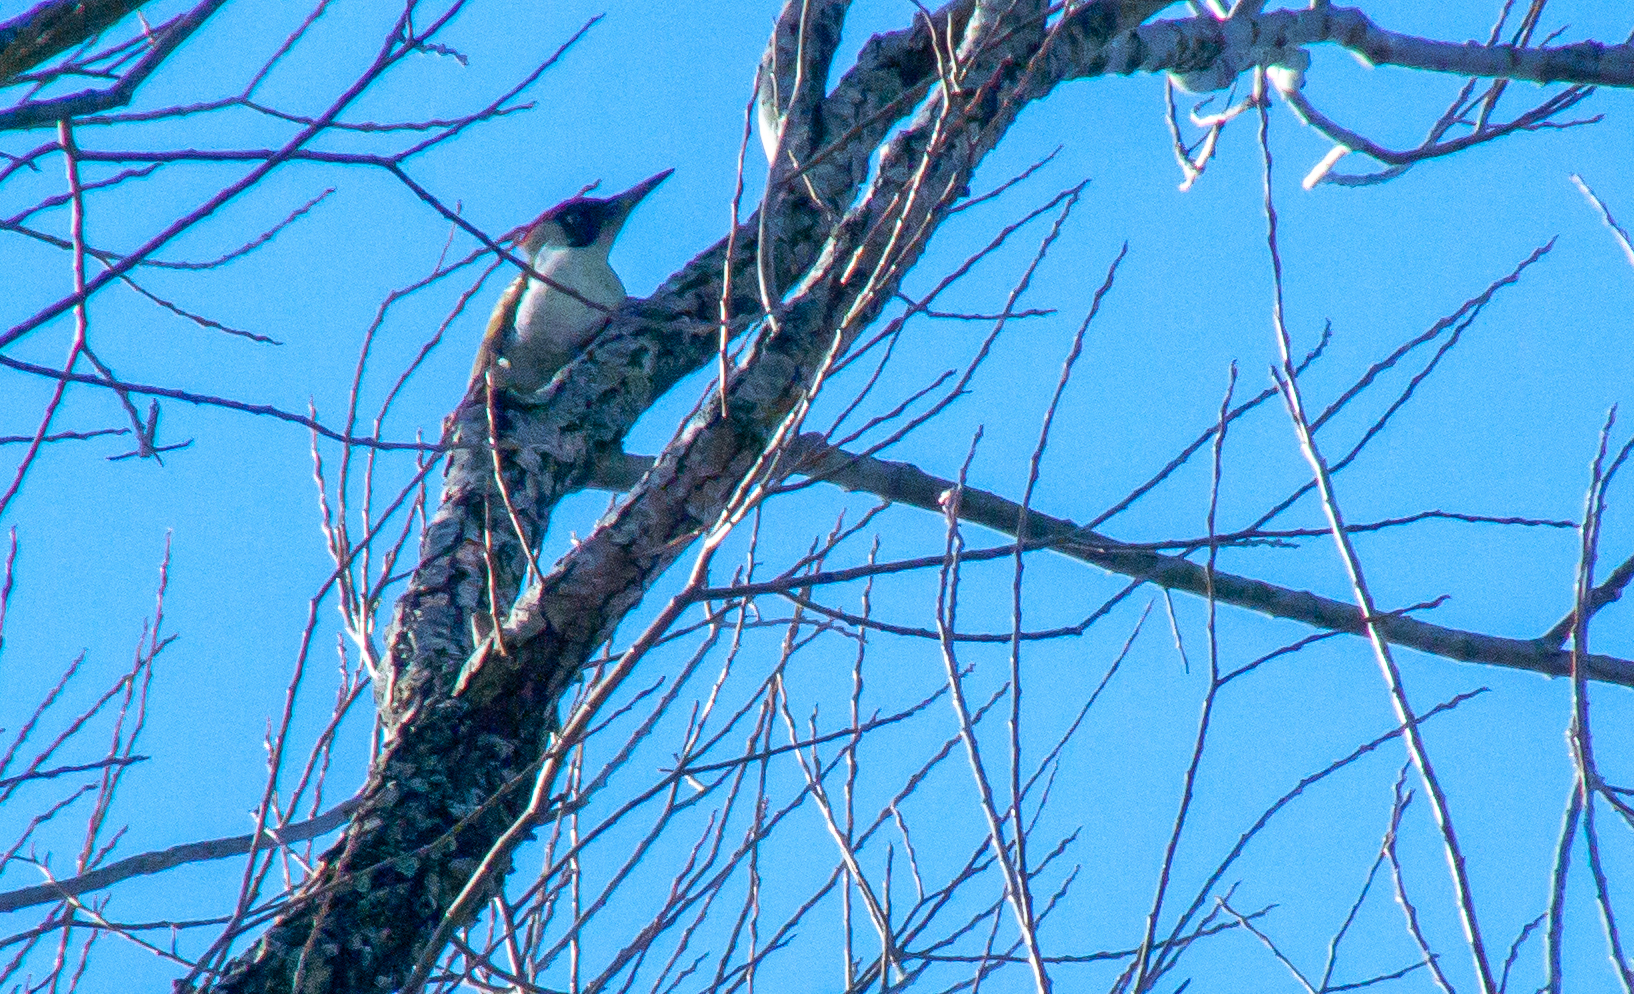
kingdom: Animalia
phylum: Chordata
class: Aves
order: Piciformes
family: Picidae
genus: Picus
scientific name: Picus viridis
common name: European green woodpecker
